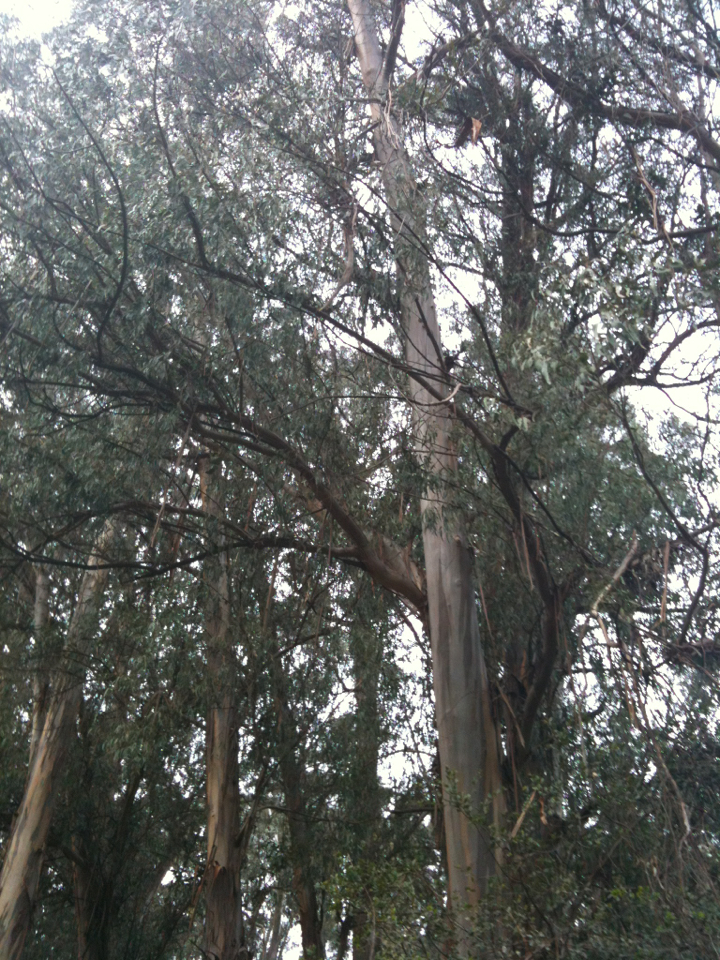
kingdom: Plantae
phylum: Tracheophyta
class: Magnoliopsida
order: Myrtales
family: Myrtaceae
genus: Eucalyptus
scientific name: Eucalyptus globulus
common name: Southern blue-gum
